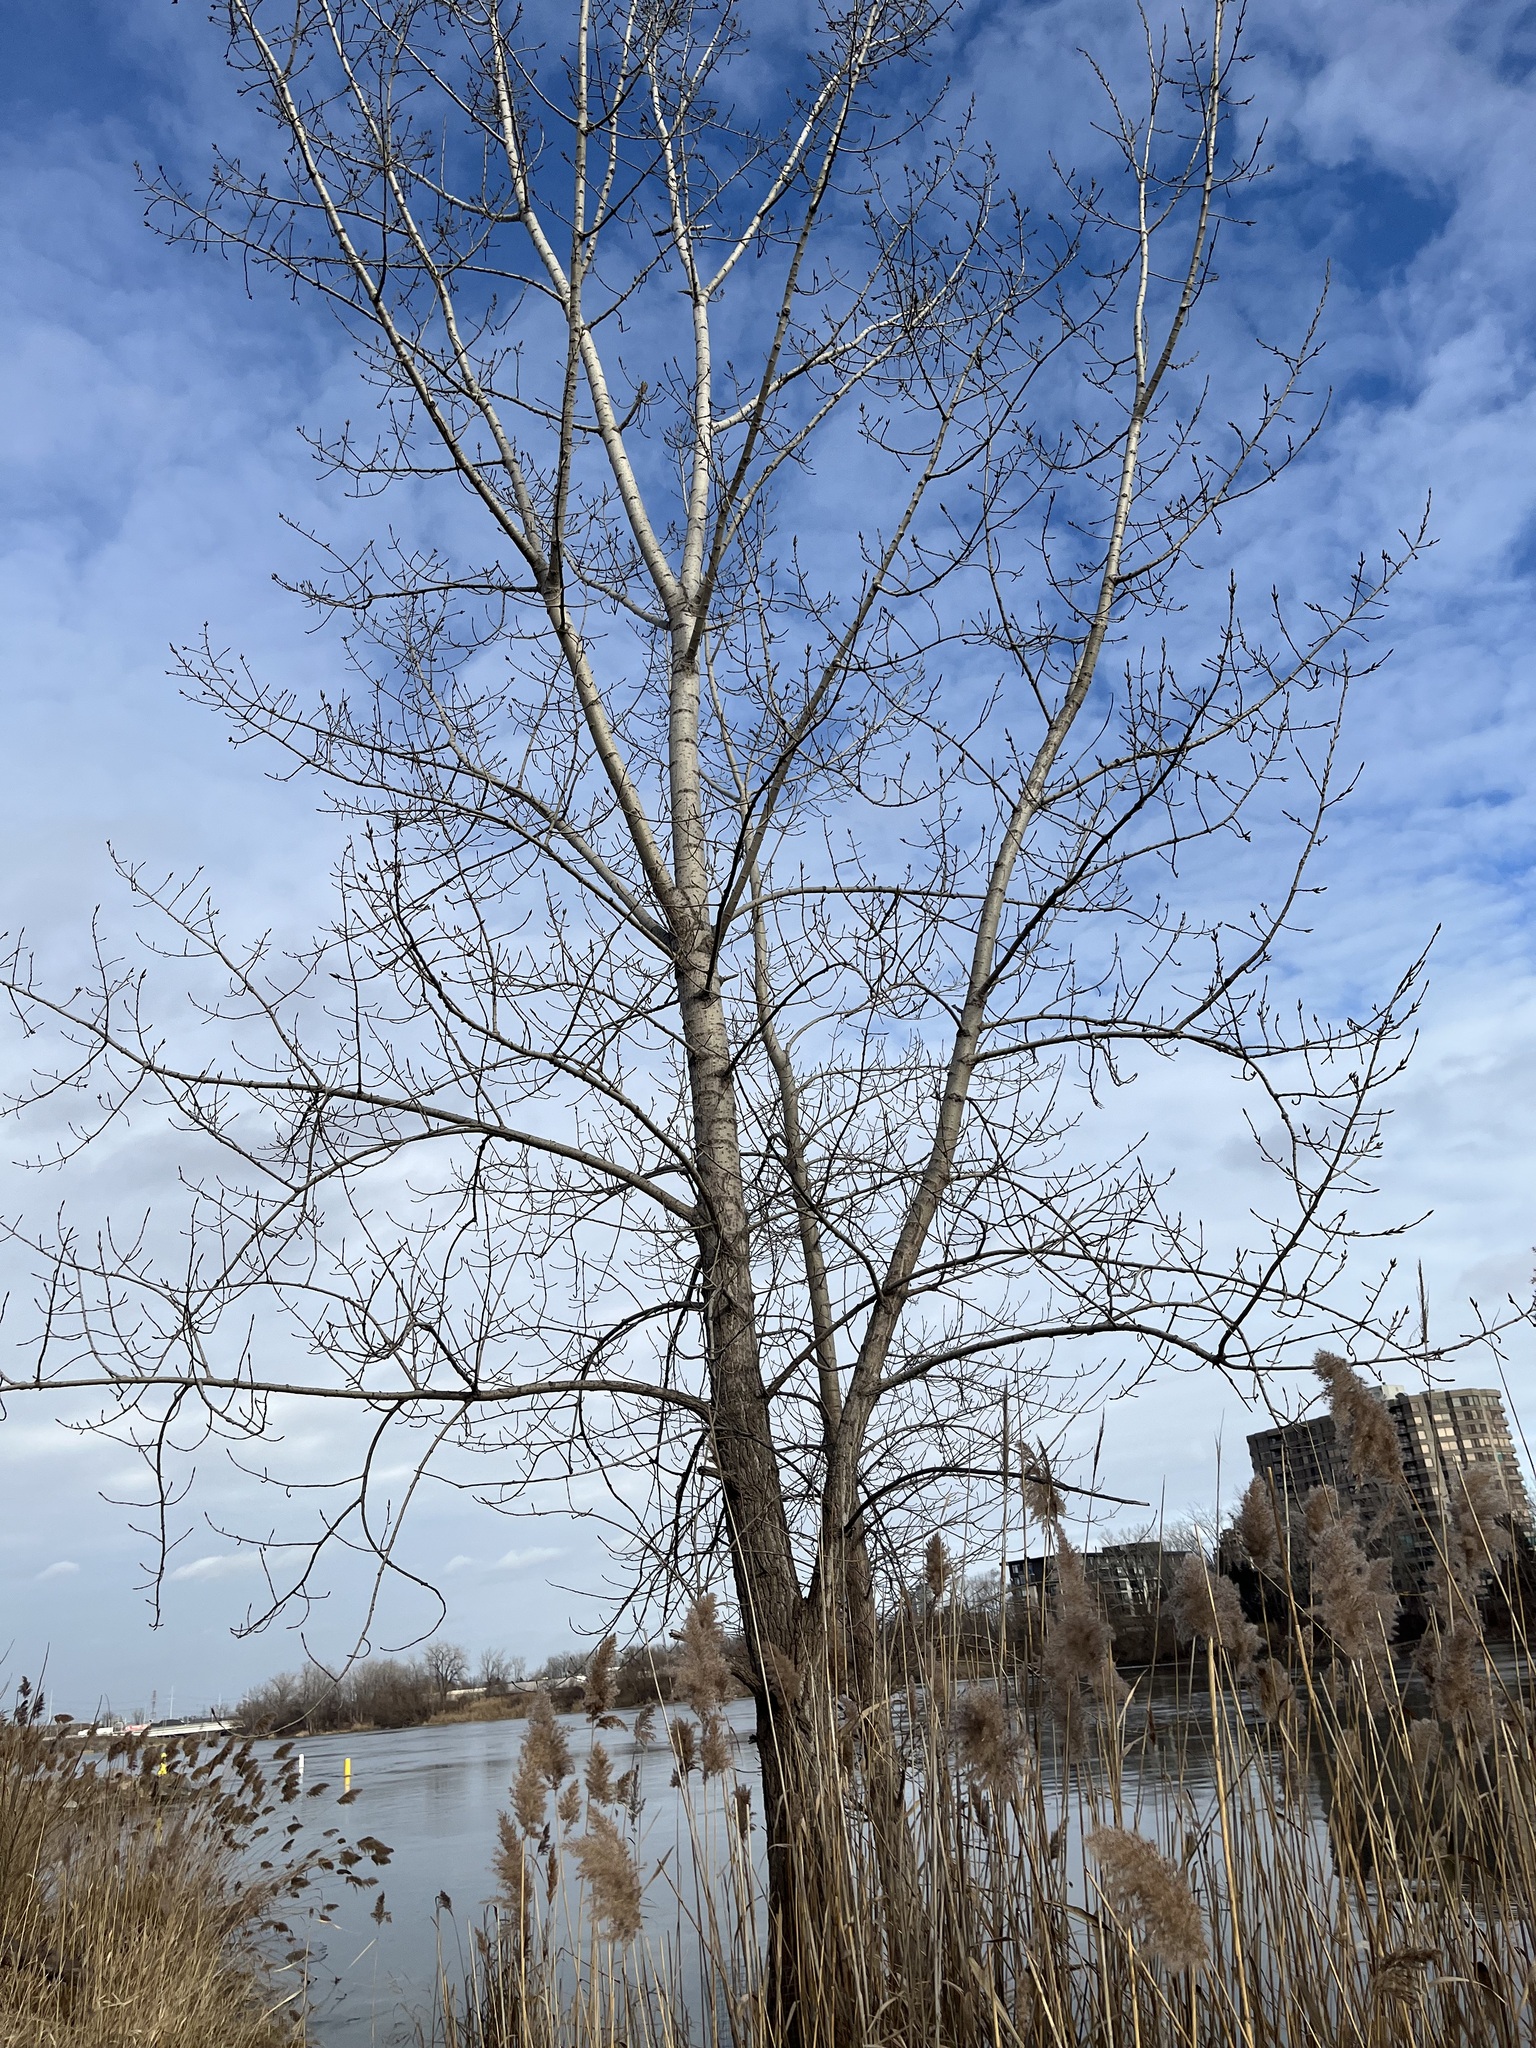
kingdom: Plantae
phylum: Tracheophyta
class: Magnoliopsida
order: Malpighiales
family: Salicaceae
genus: Populus
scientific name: Populus deltoides
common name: Eastern cottonwood
